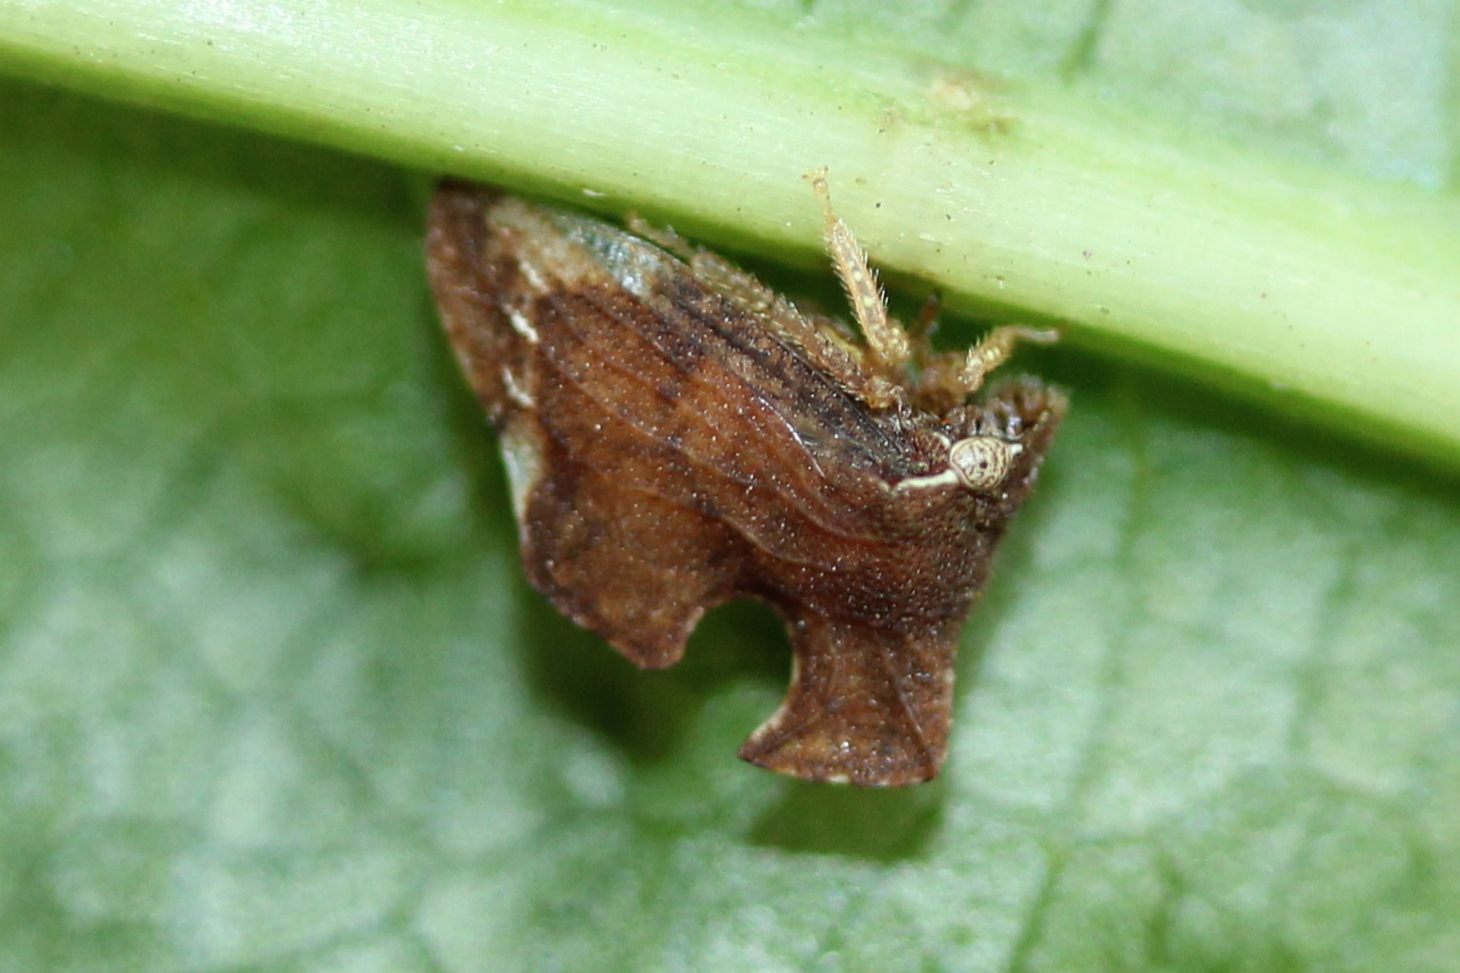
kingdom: Animalia
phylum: Arthropoda
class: Insecta
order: Hemiptera
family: Membracidae
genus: Entylia
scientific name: Entylia carinata
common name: Keeled treehopper
